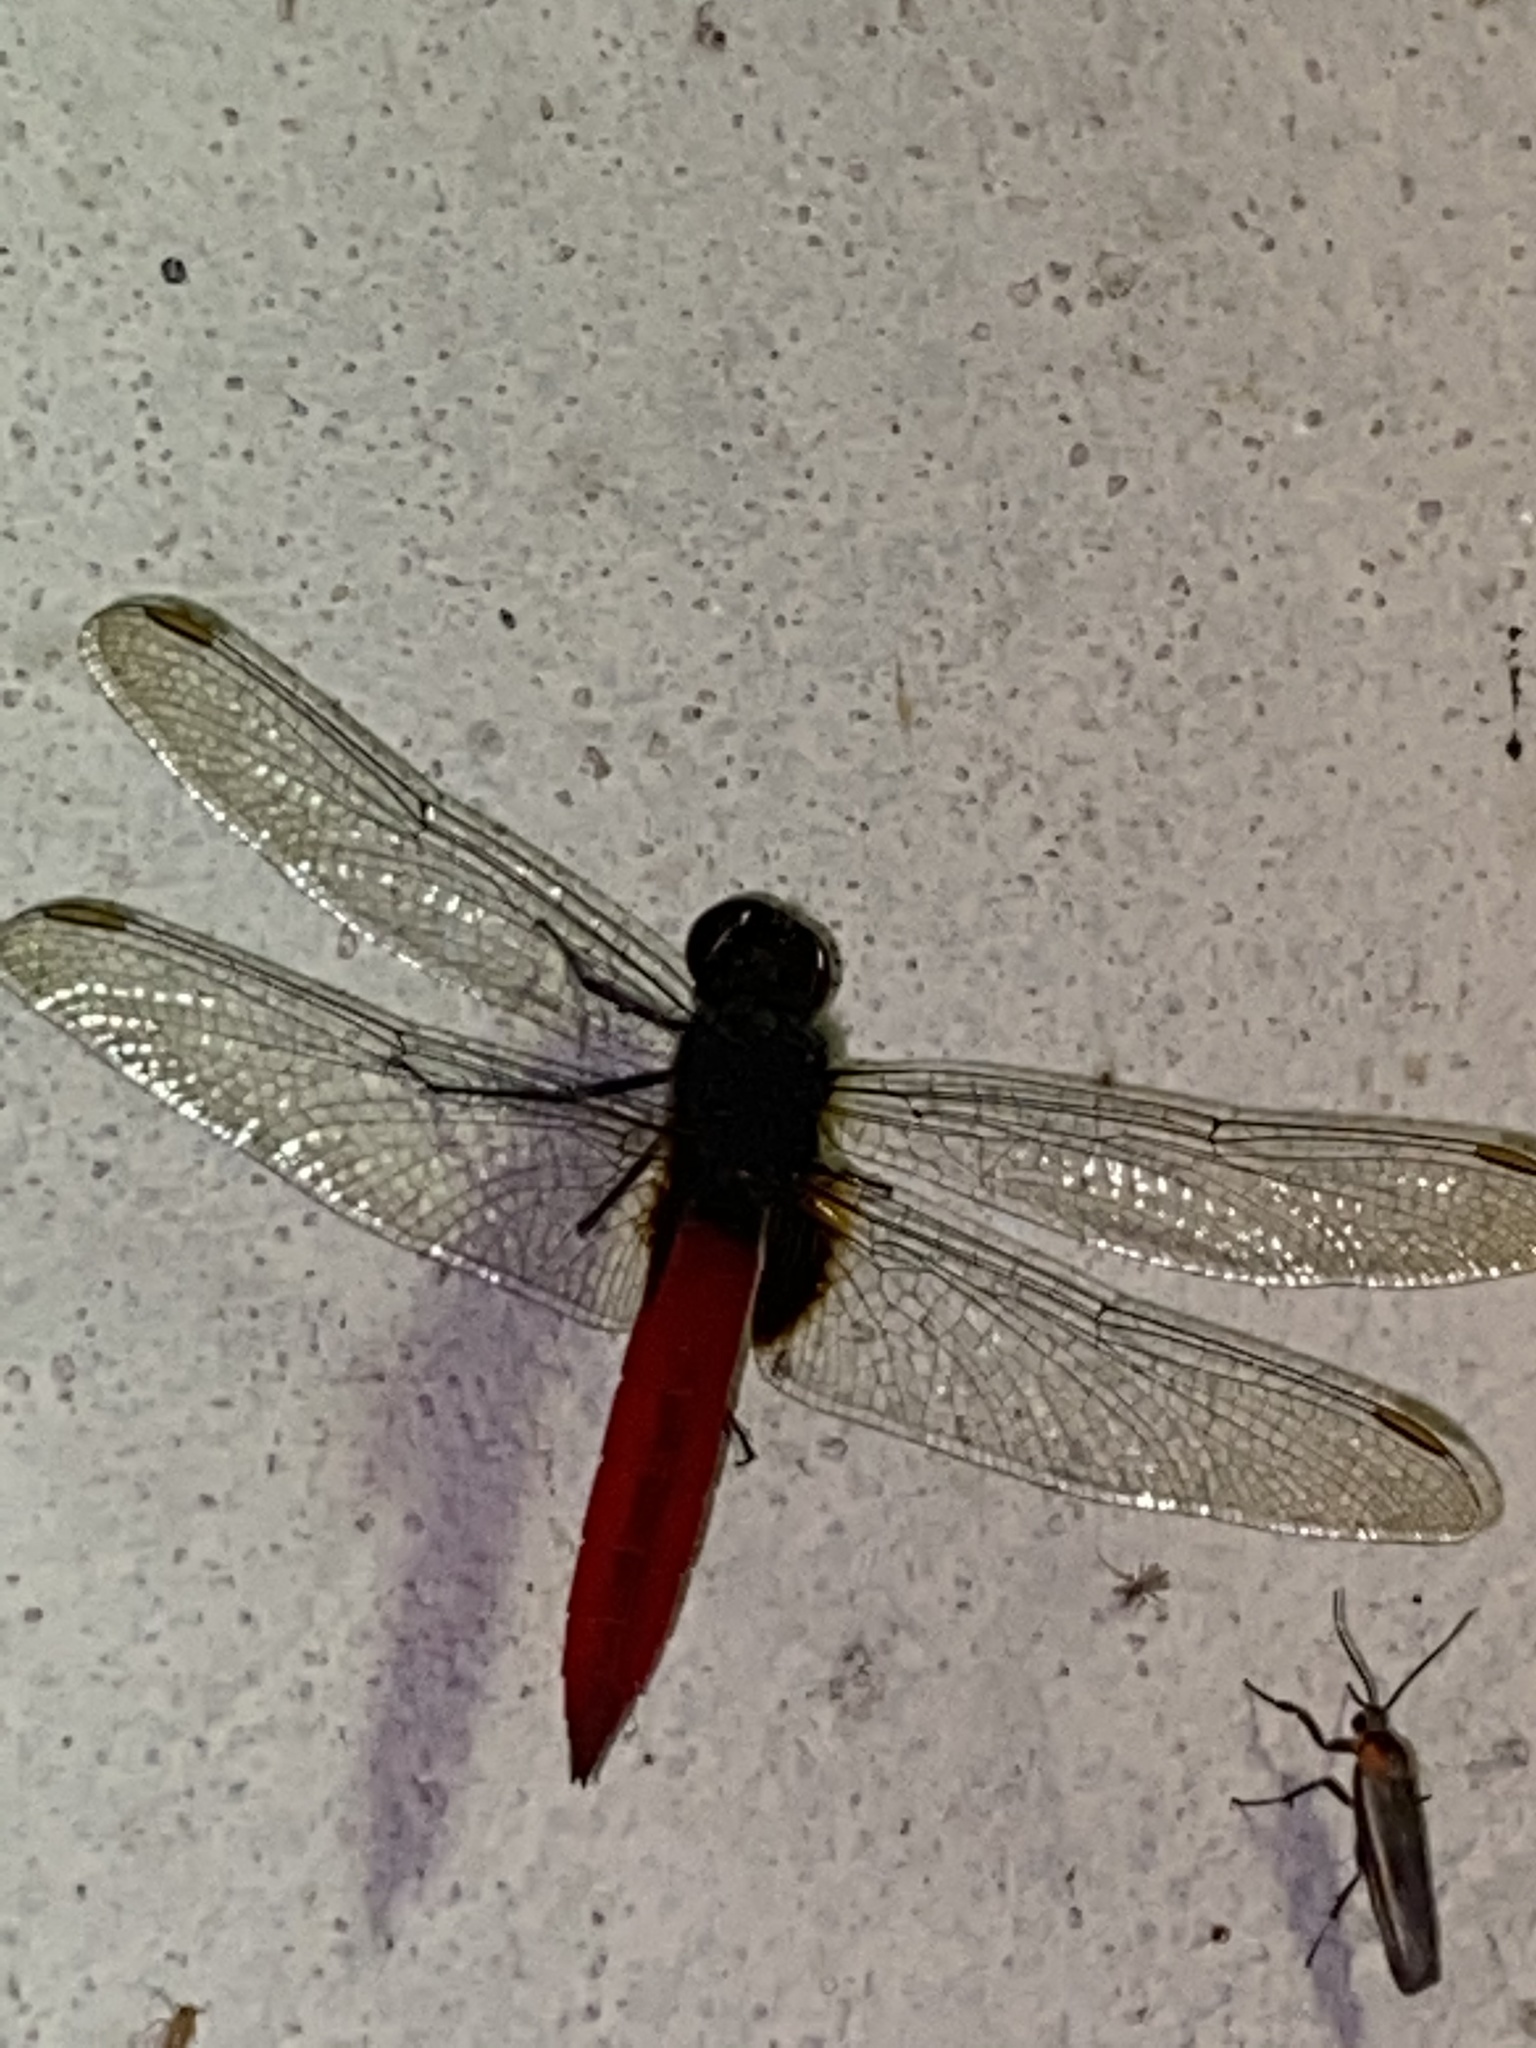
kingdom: Animalia
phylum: Arthropoda
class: Insecta
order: Odonata
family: Libellulidae
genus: Planiplax
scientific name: Planiplax phoenicura
